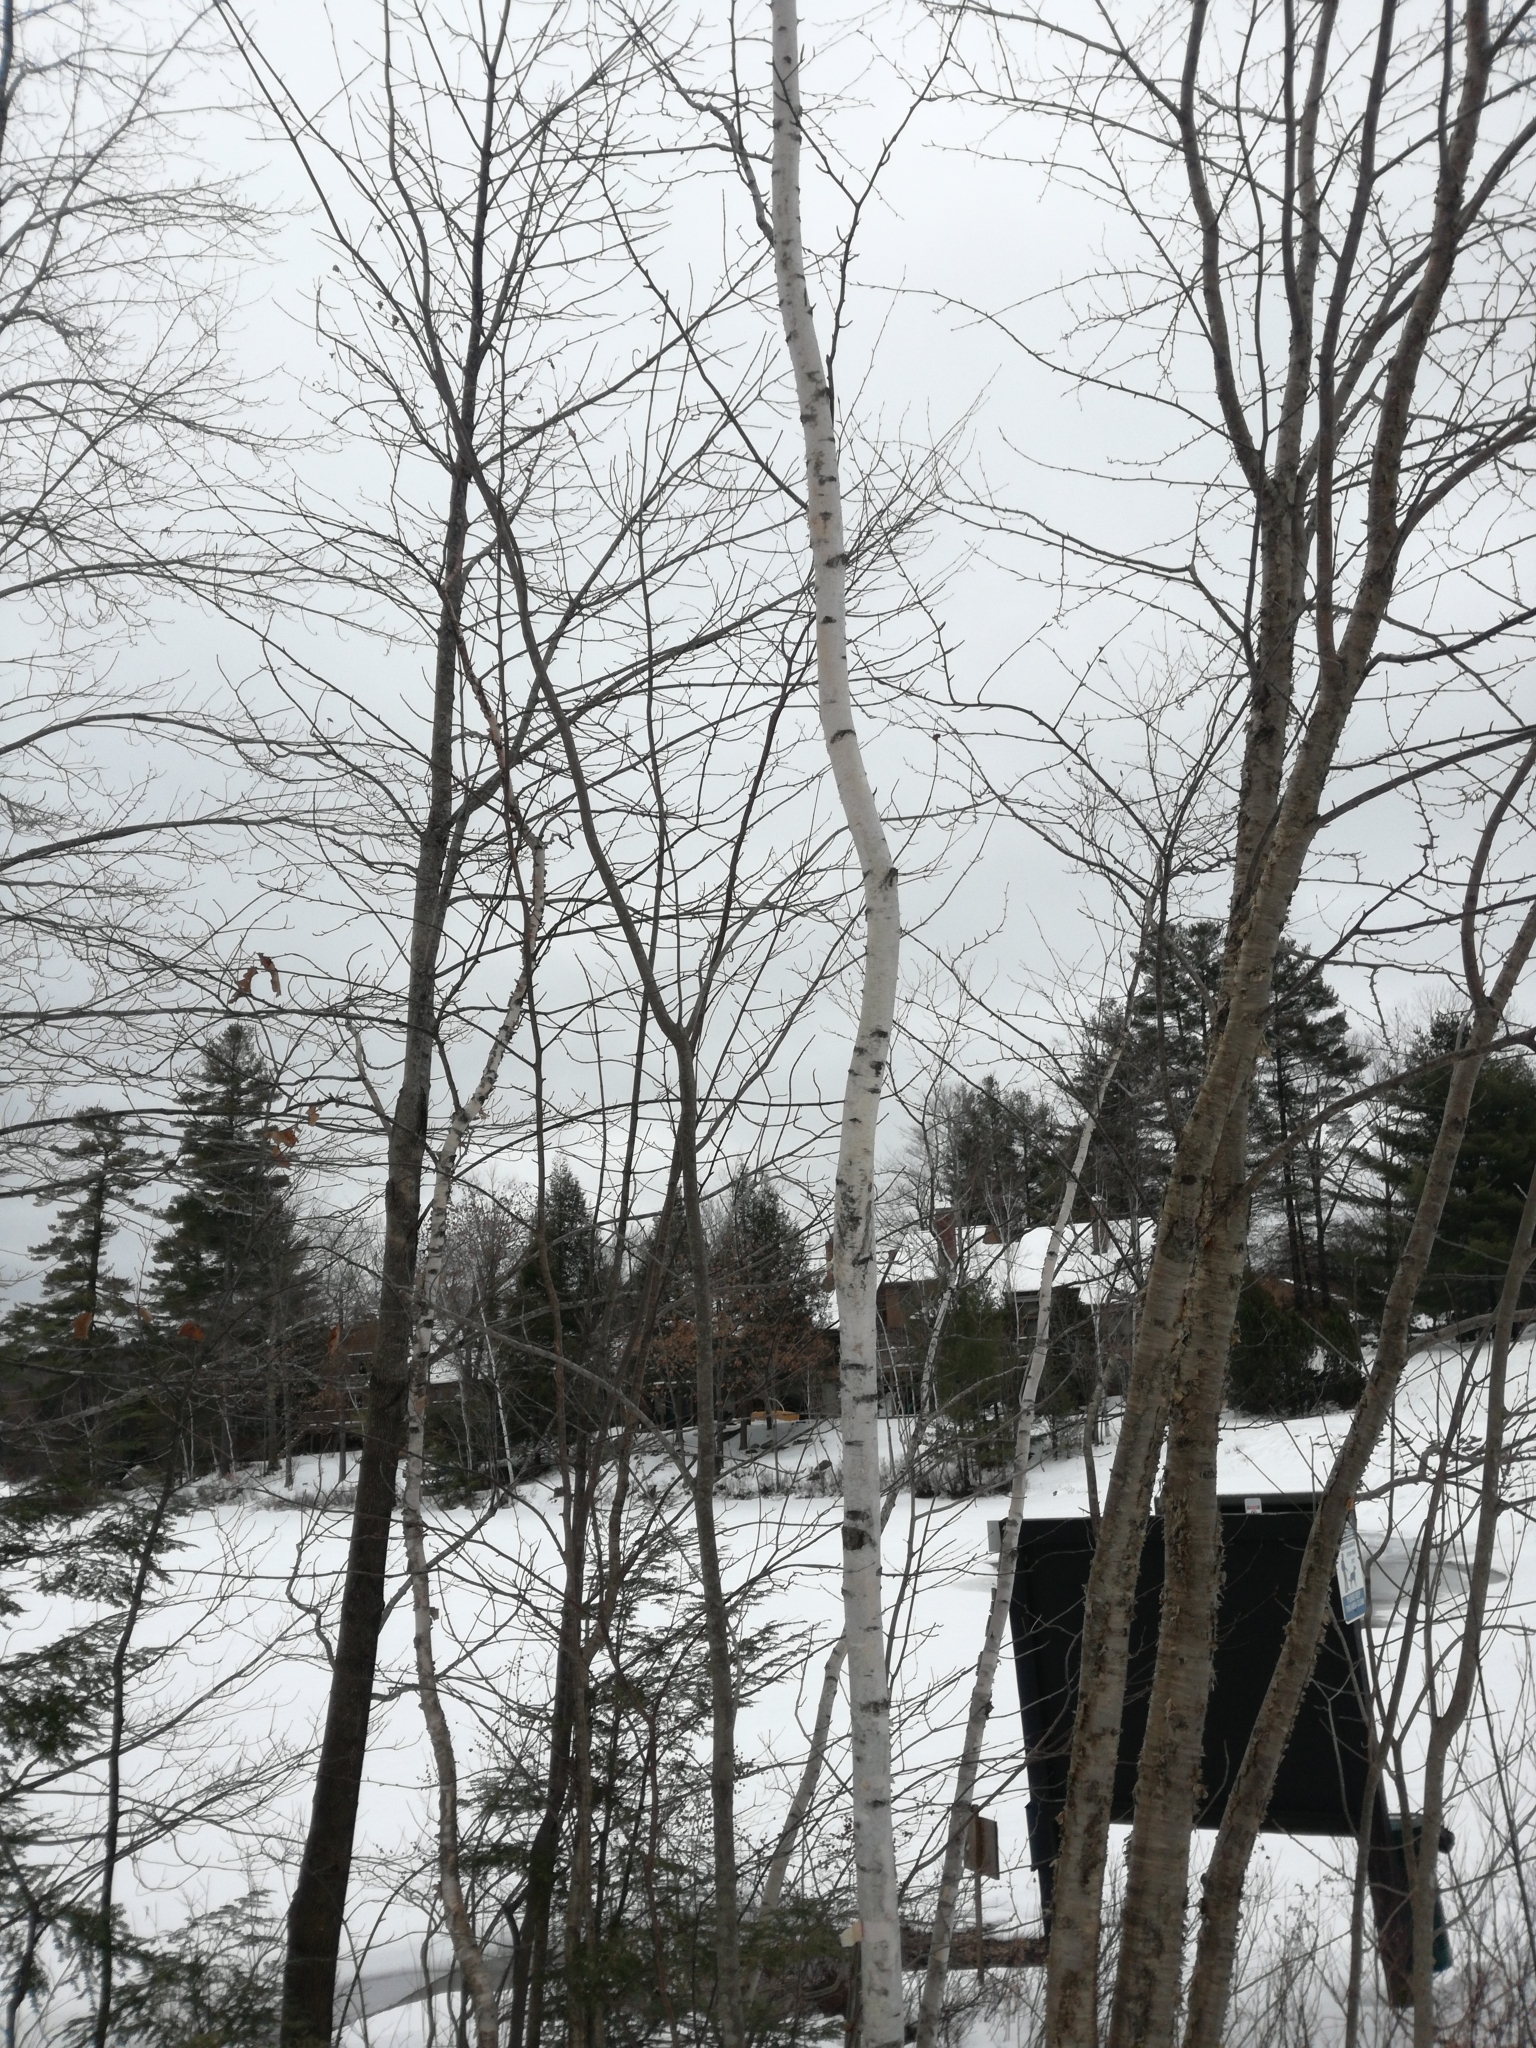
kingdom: Plantae
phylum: Tracheophyta
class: Magnoliopsida
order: Fagales
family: Betulaceae
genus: Betula
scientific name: Betula papyrifera
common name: Paper birch
